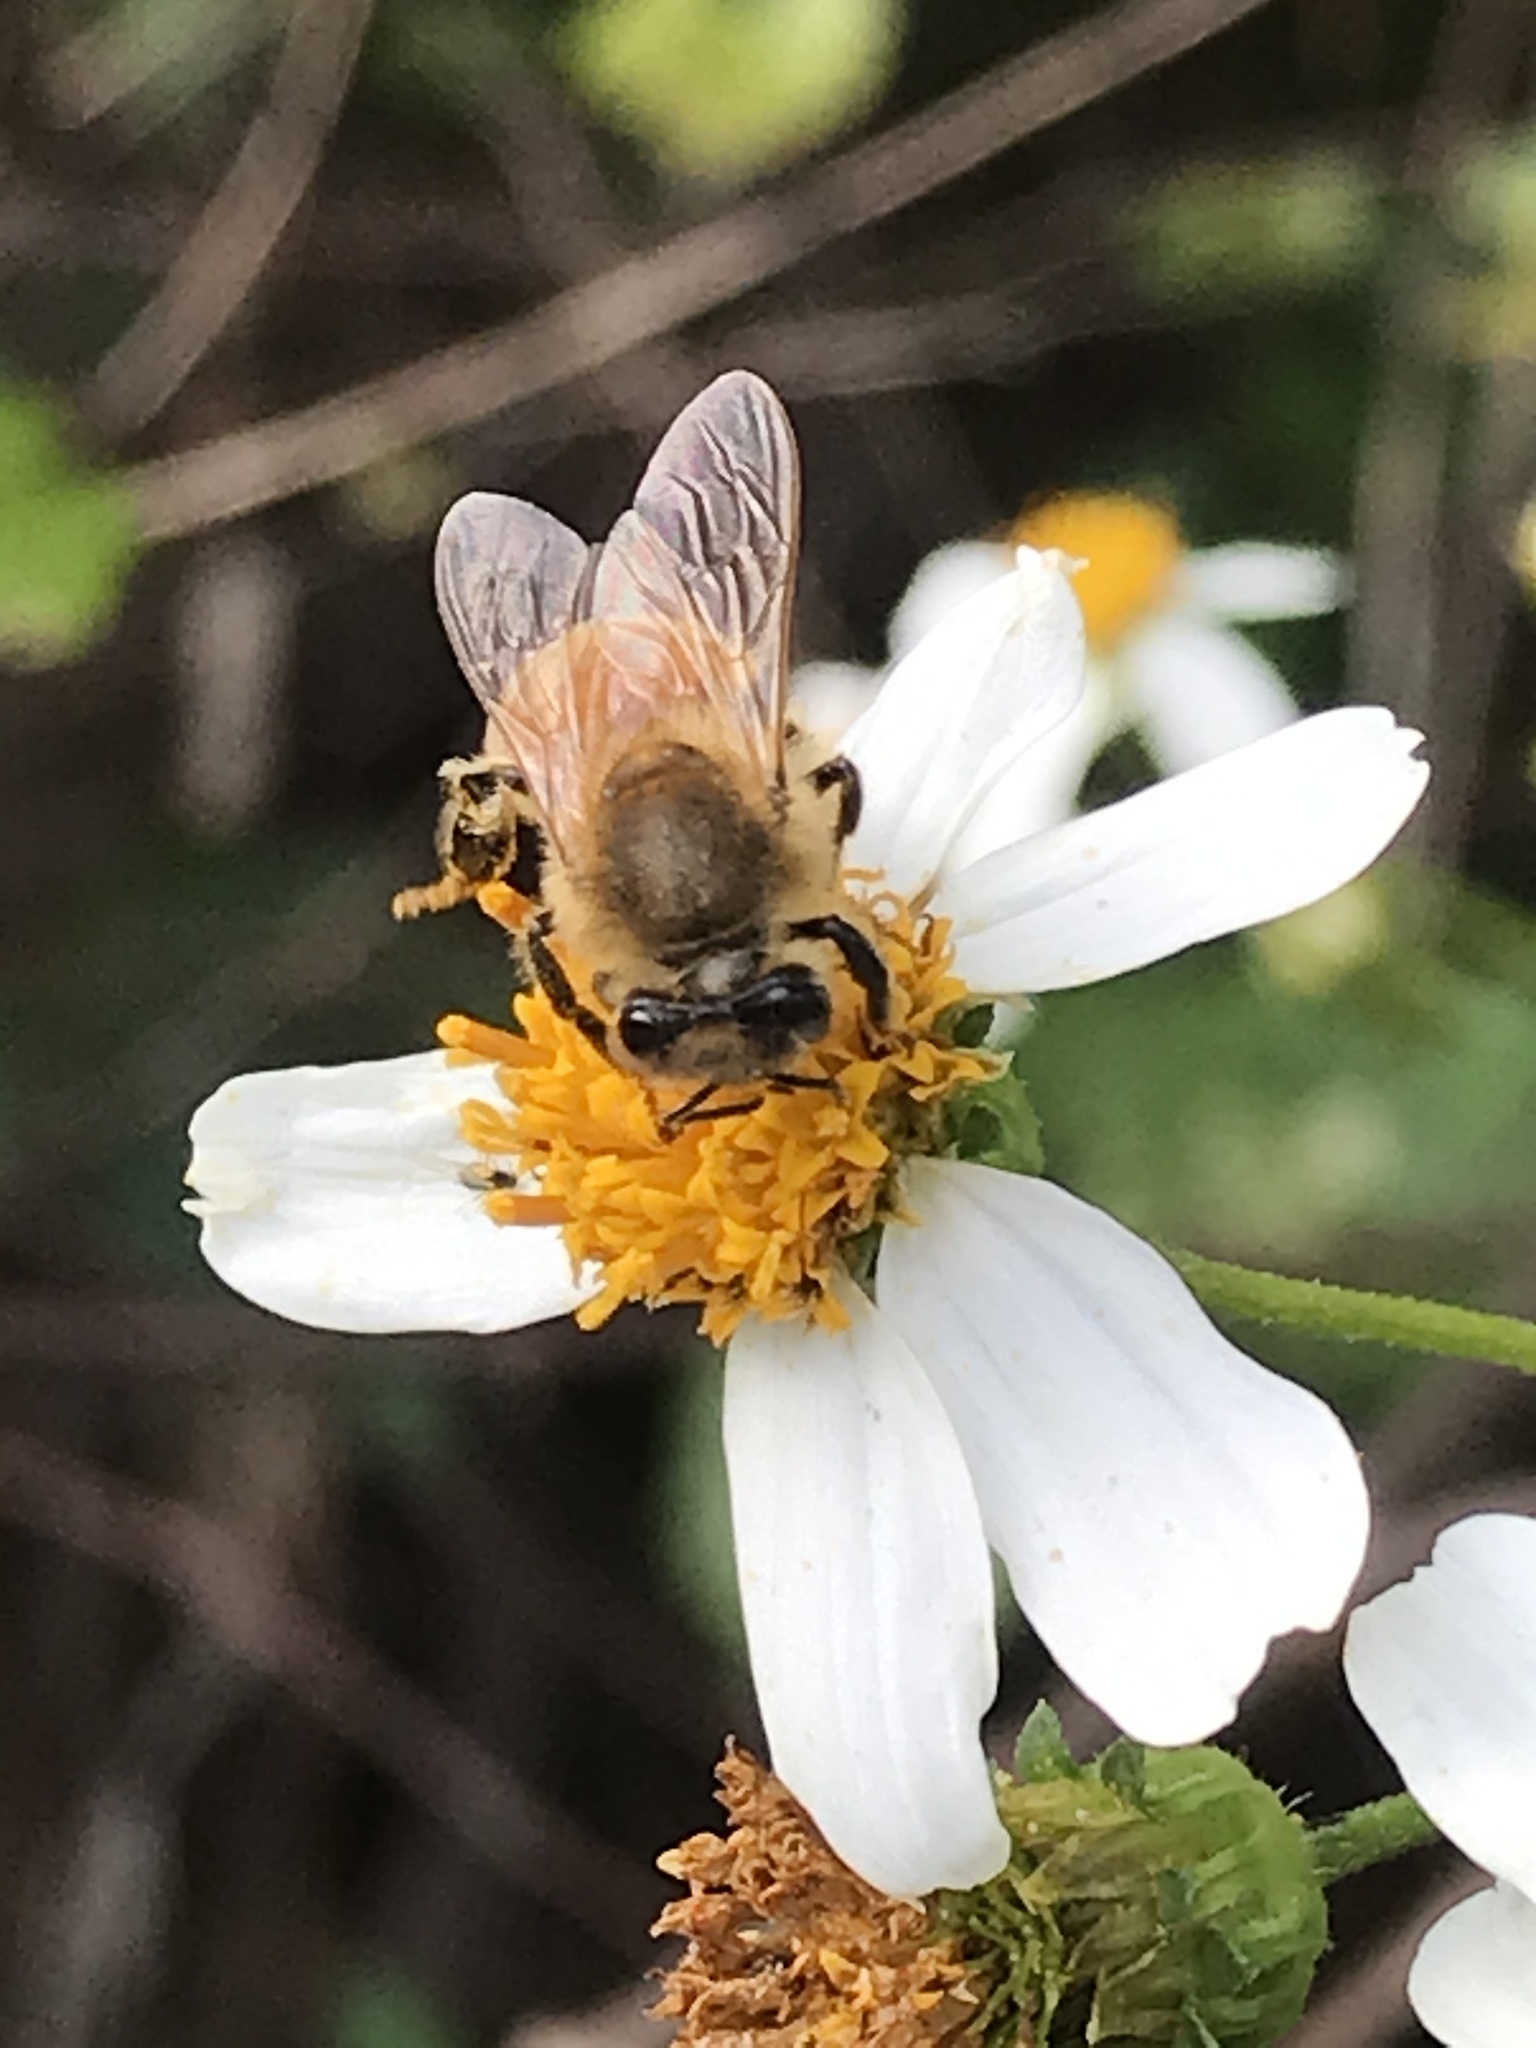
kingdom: Animalia
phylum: Arthropoda
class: Insecta
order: Hymenoptera
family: Apidae
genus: Apis
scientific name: Apis mellifera
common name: Honey bee
